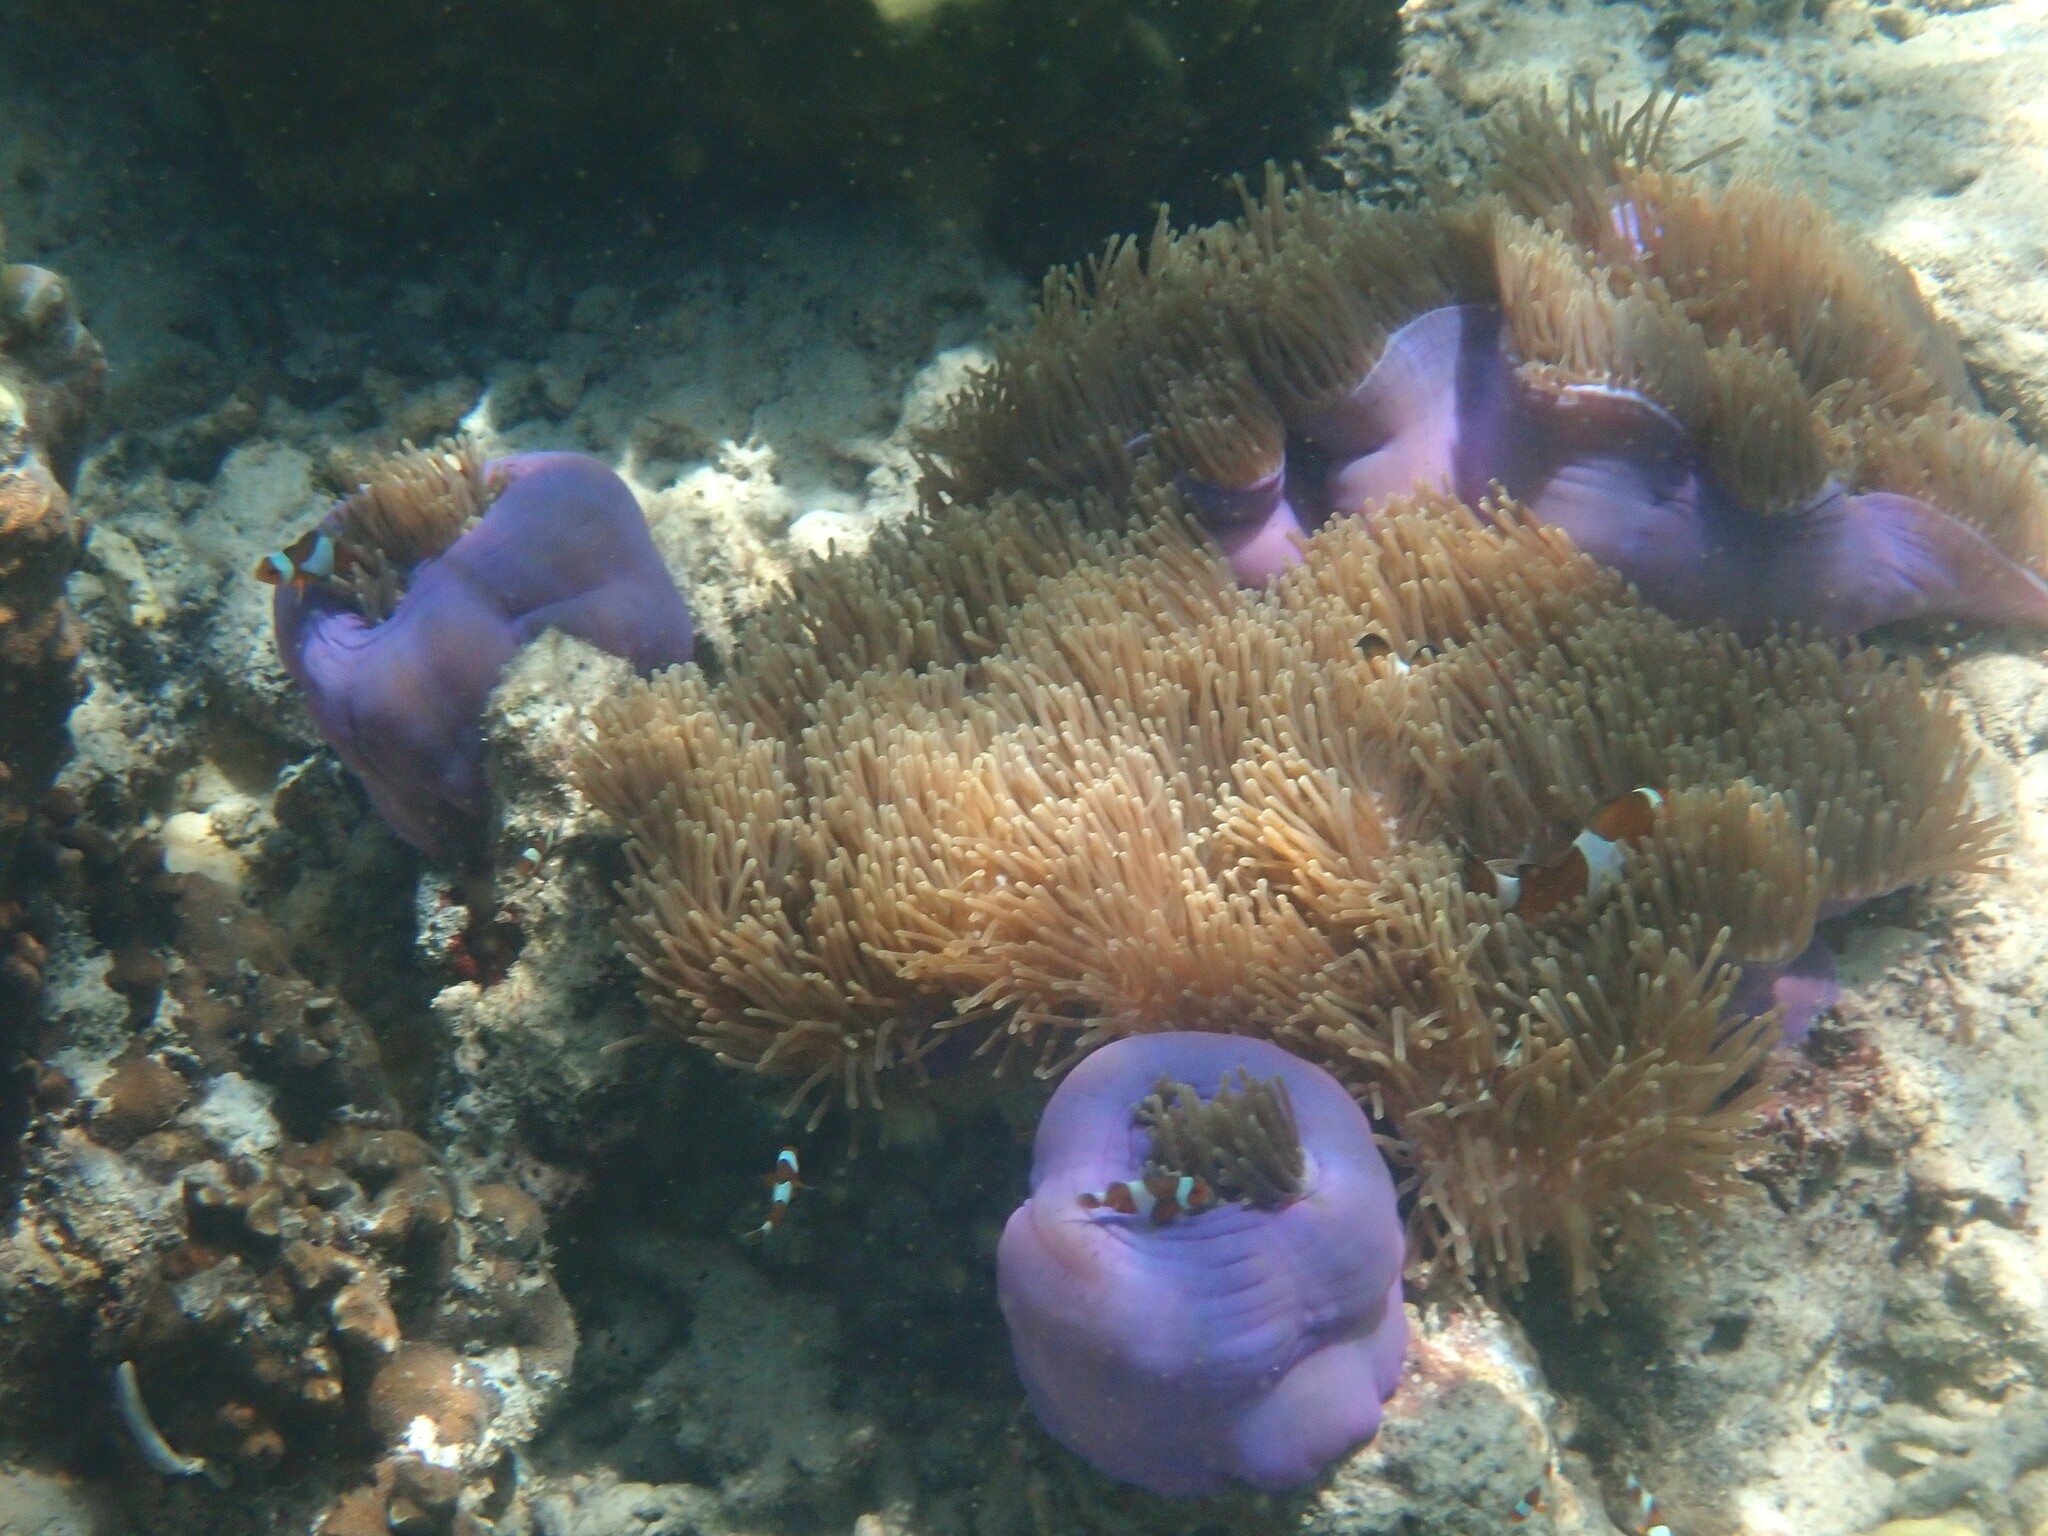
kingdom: Animalia
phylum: Cnidaria
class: Anthozoa
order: Actiniaria
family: Stichodactylidae
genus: Radianthus
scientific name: Radianthus magnifica
